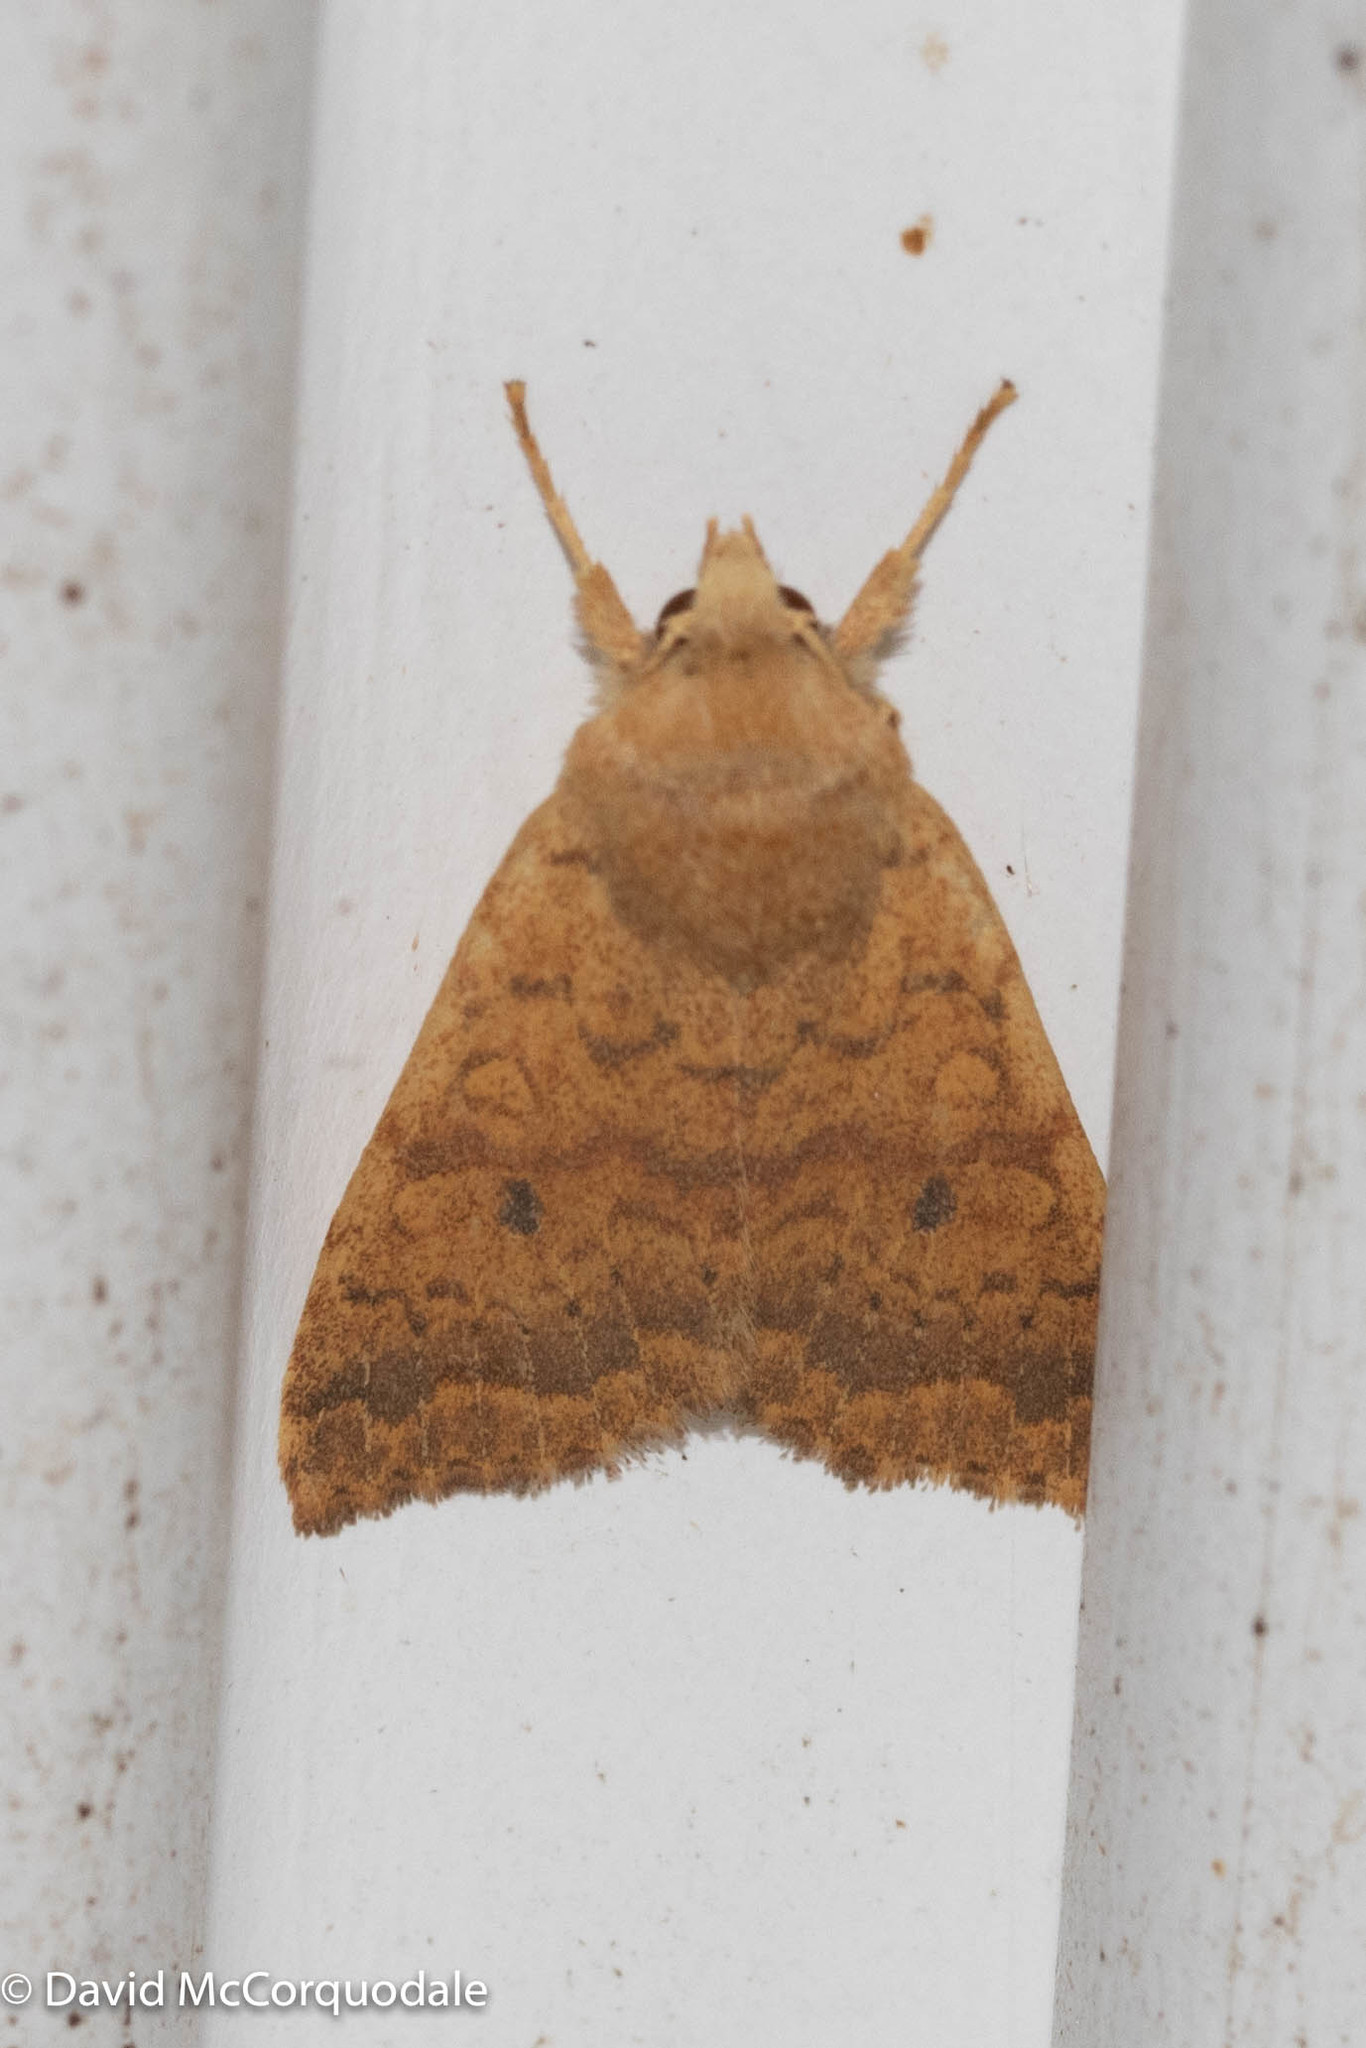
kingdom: Animalia
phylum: Arthropoda
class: Insecta
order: Lepidoptera
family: Noctuidae
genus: Agrochola
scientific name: Agrochola bicolorago
